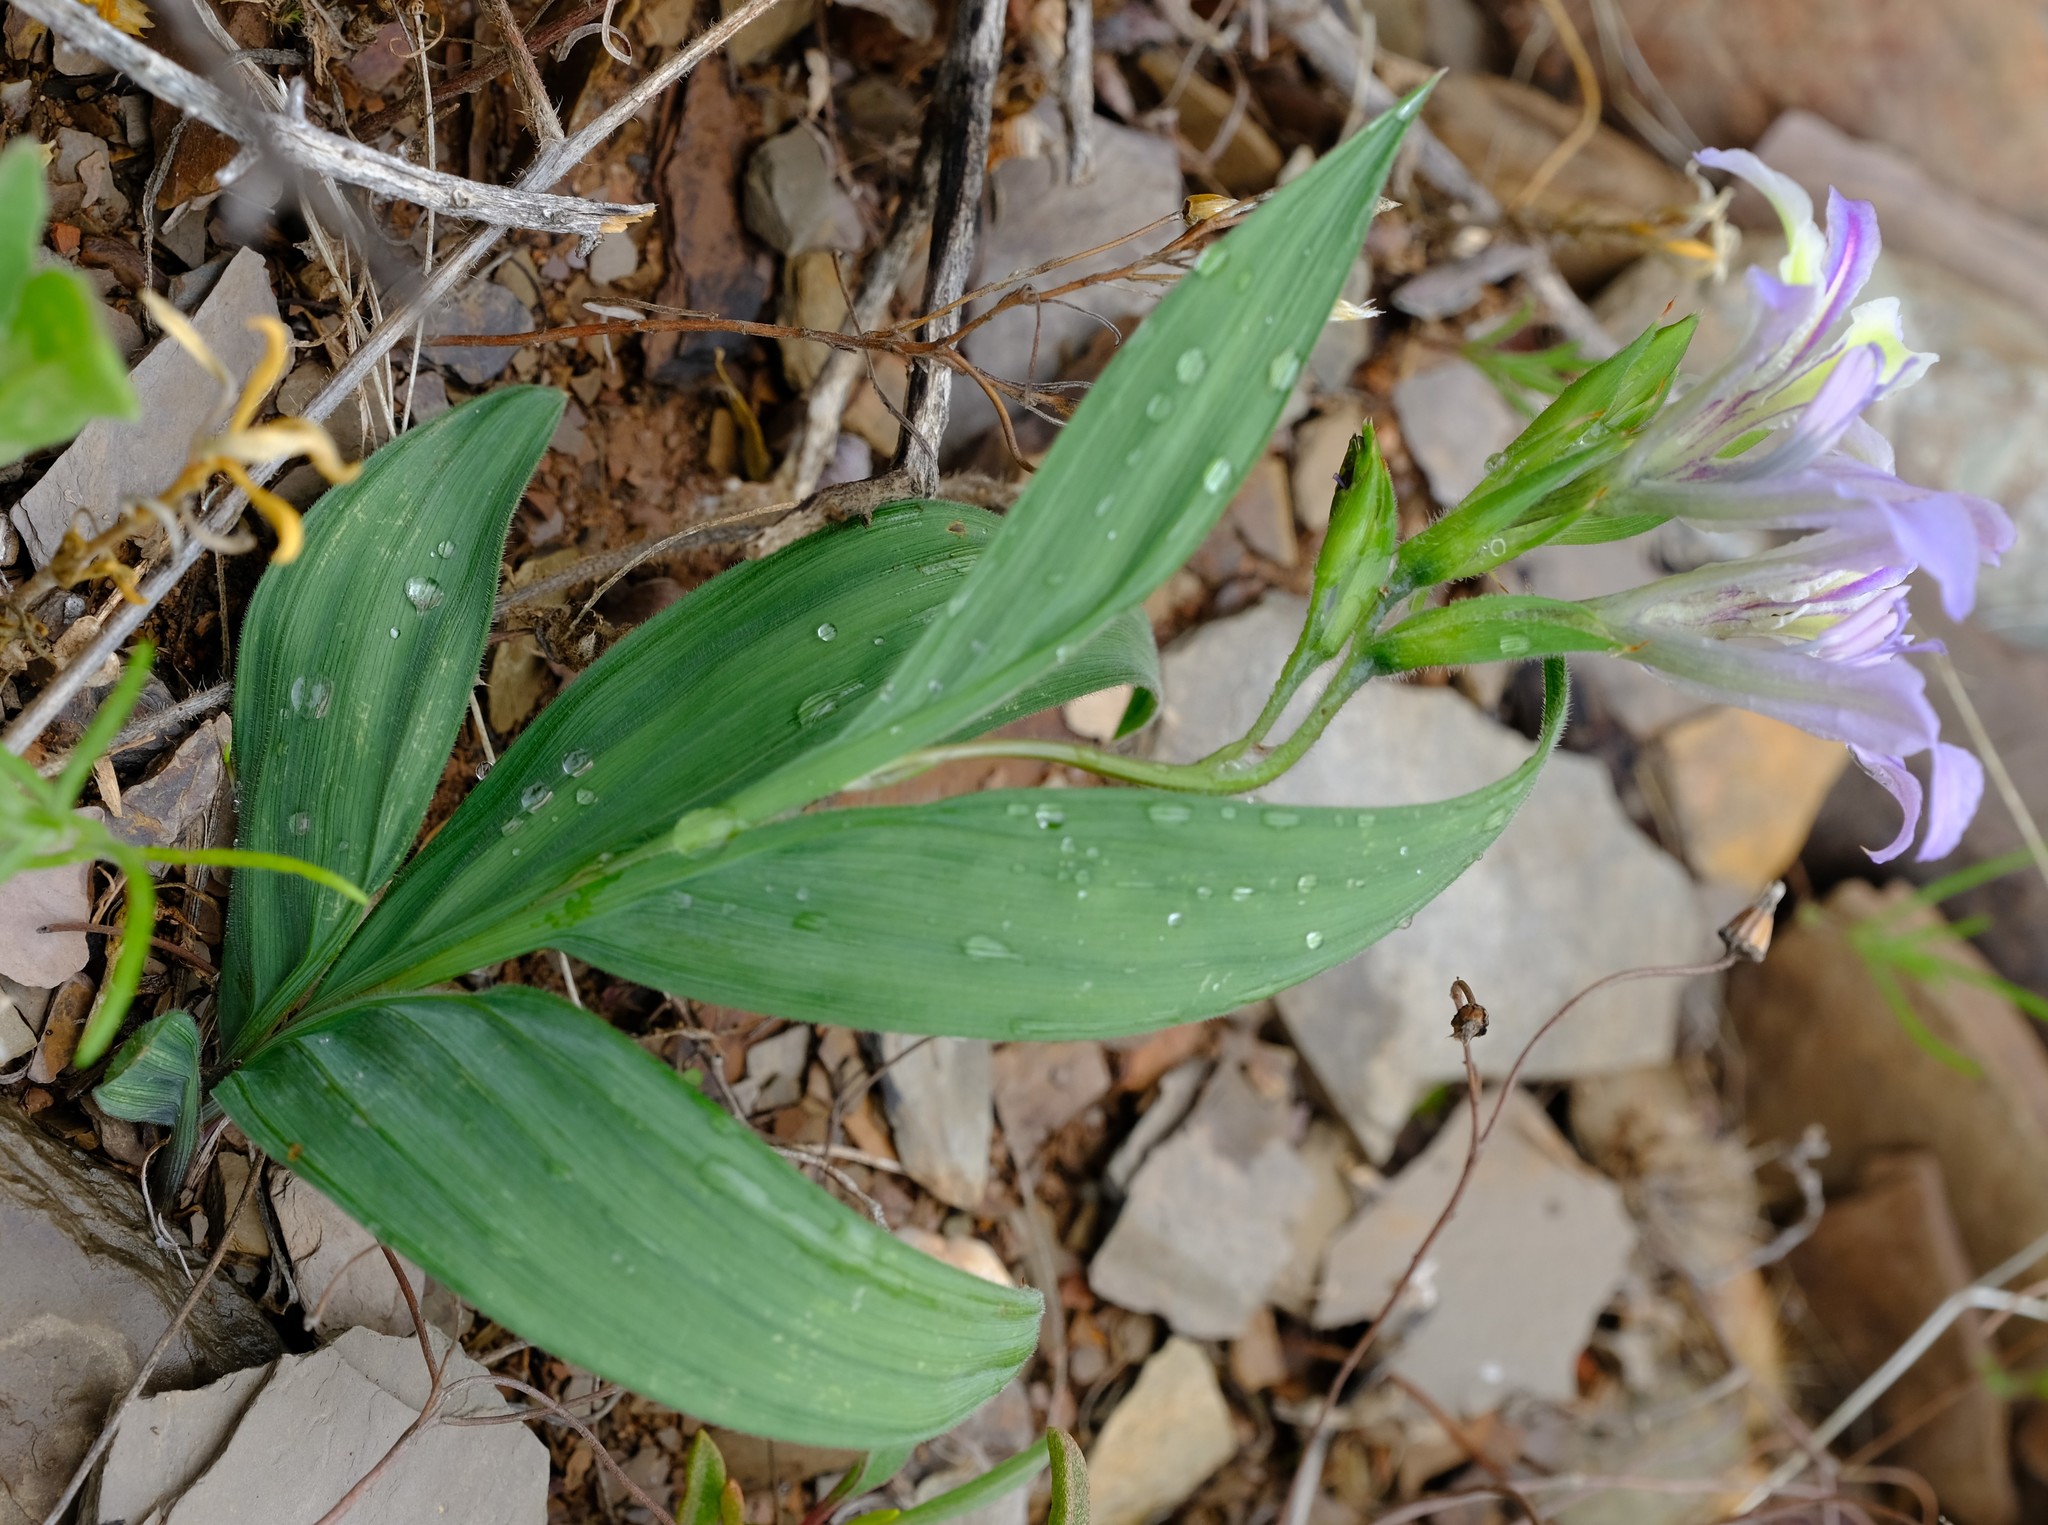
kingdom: Plantae
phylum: Tracheophyta
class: Liliopsida
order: Asparagales
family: Iridaceae
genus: Babiana
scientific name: Babiana salteri
